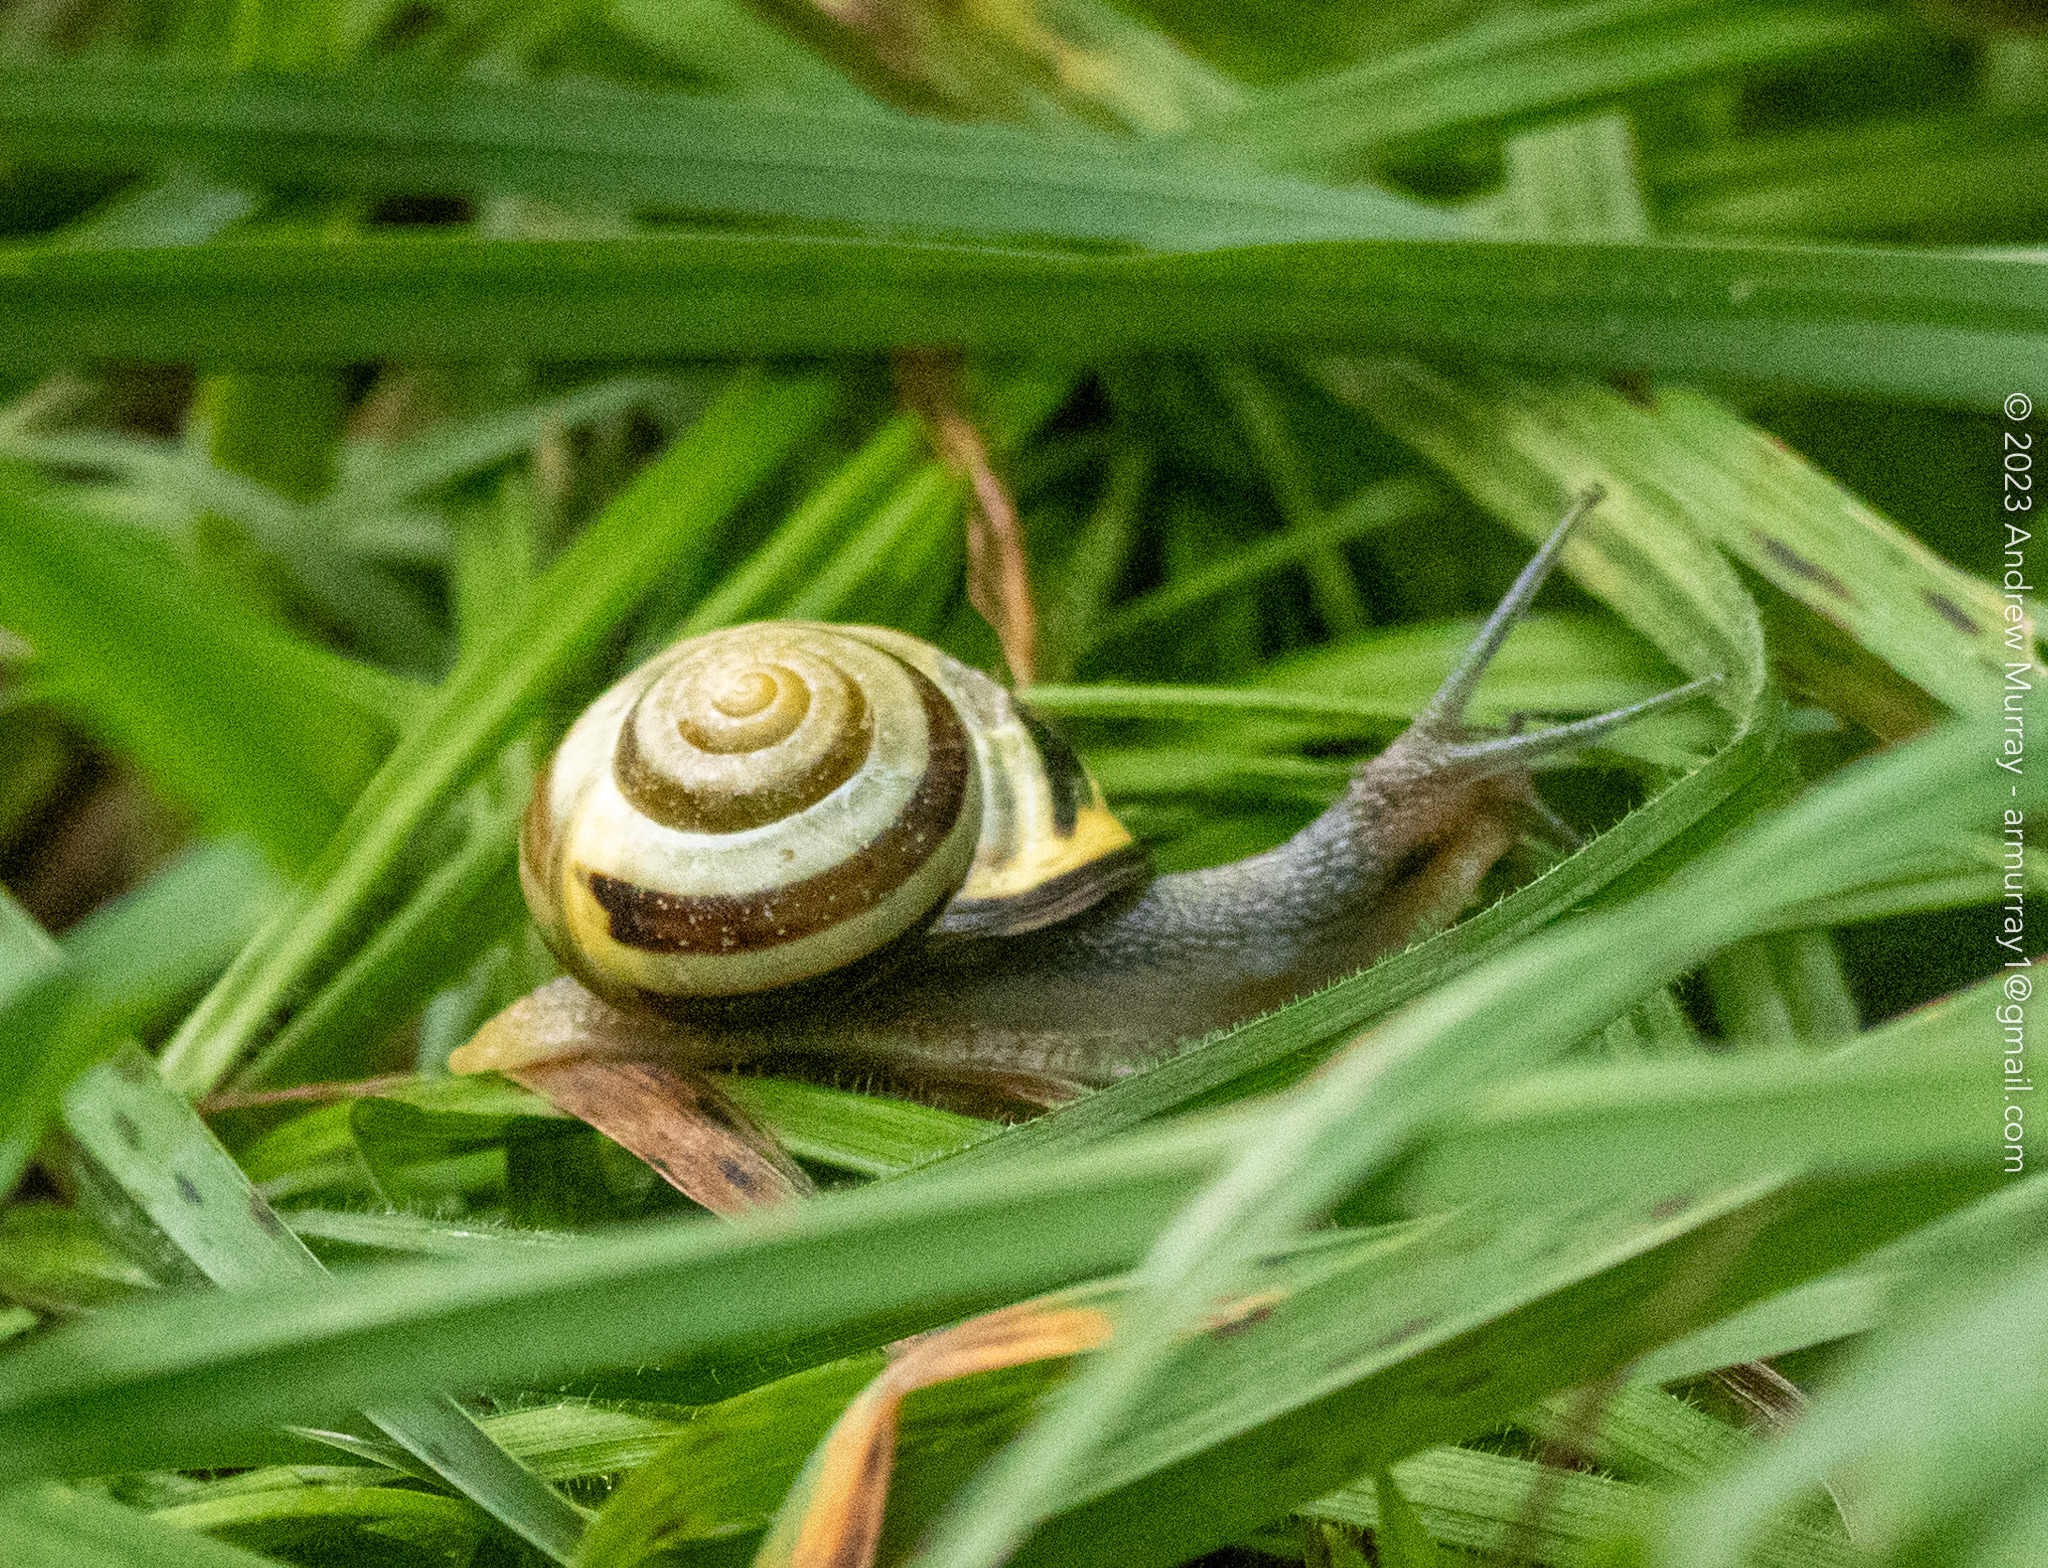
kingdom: Animalia
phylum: Mollusca
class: Gastropoda
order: Stylommatophora
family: Helicidae
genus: Cepaea
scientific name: Cepaea nemoralis
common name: Grovesnail
